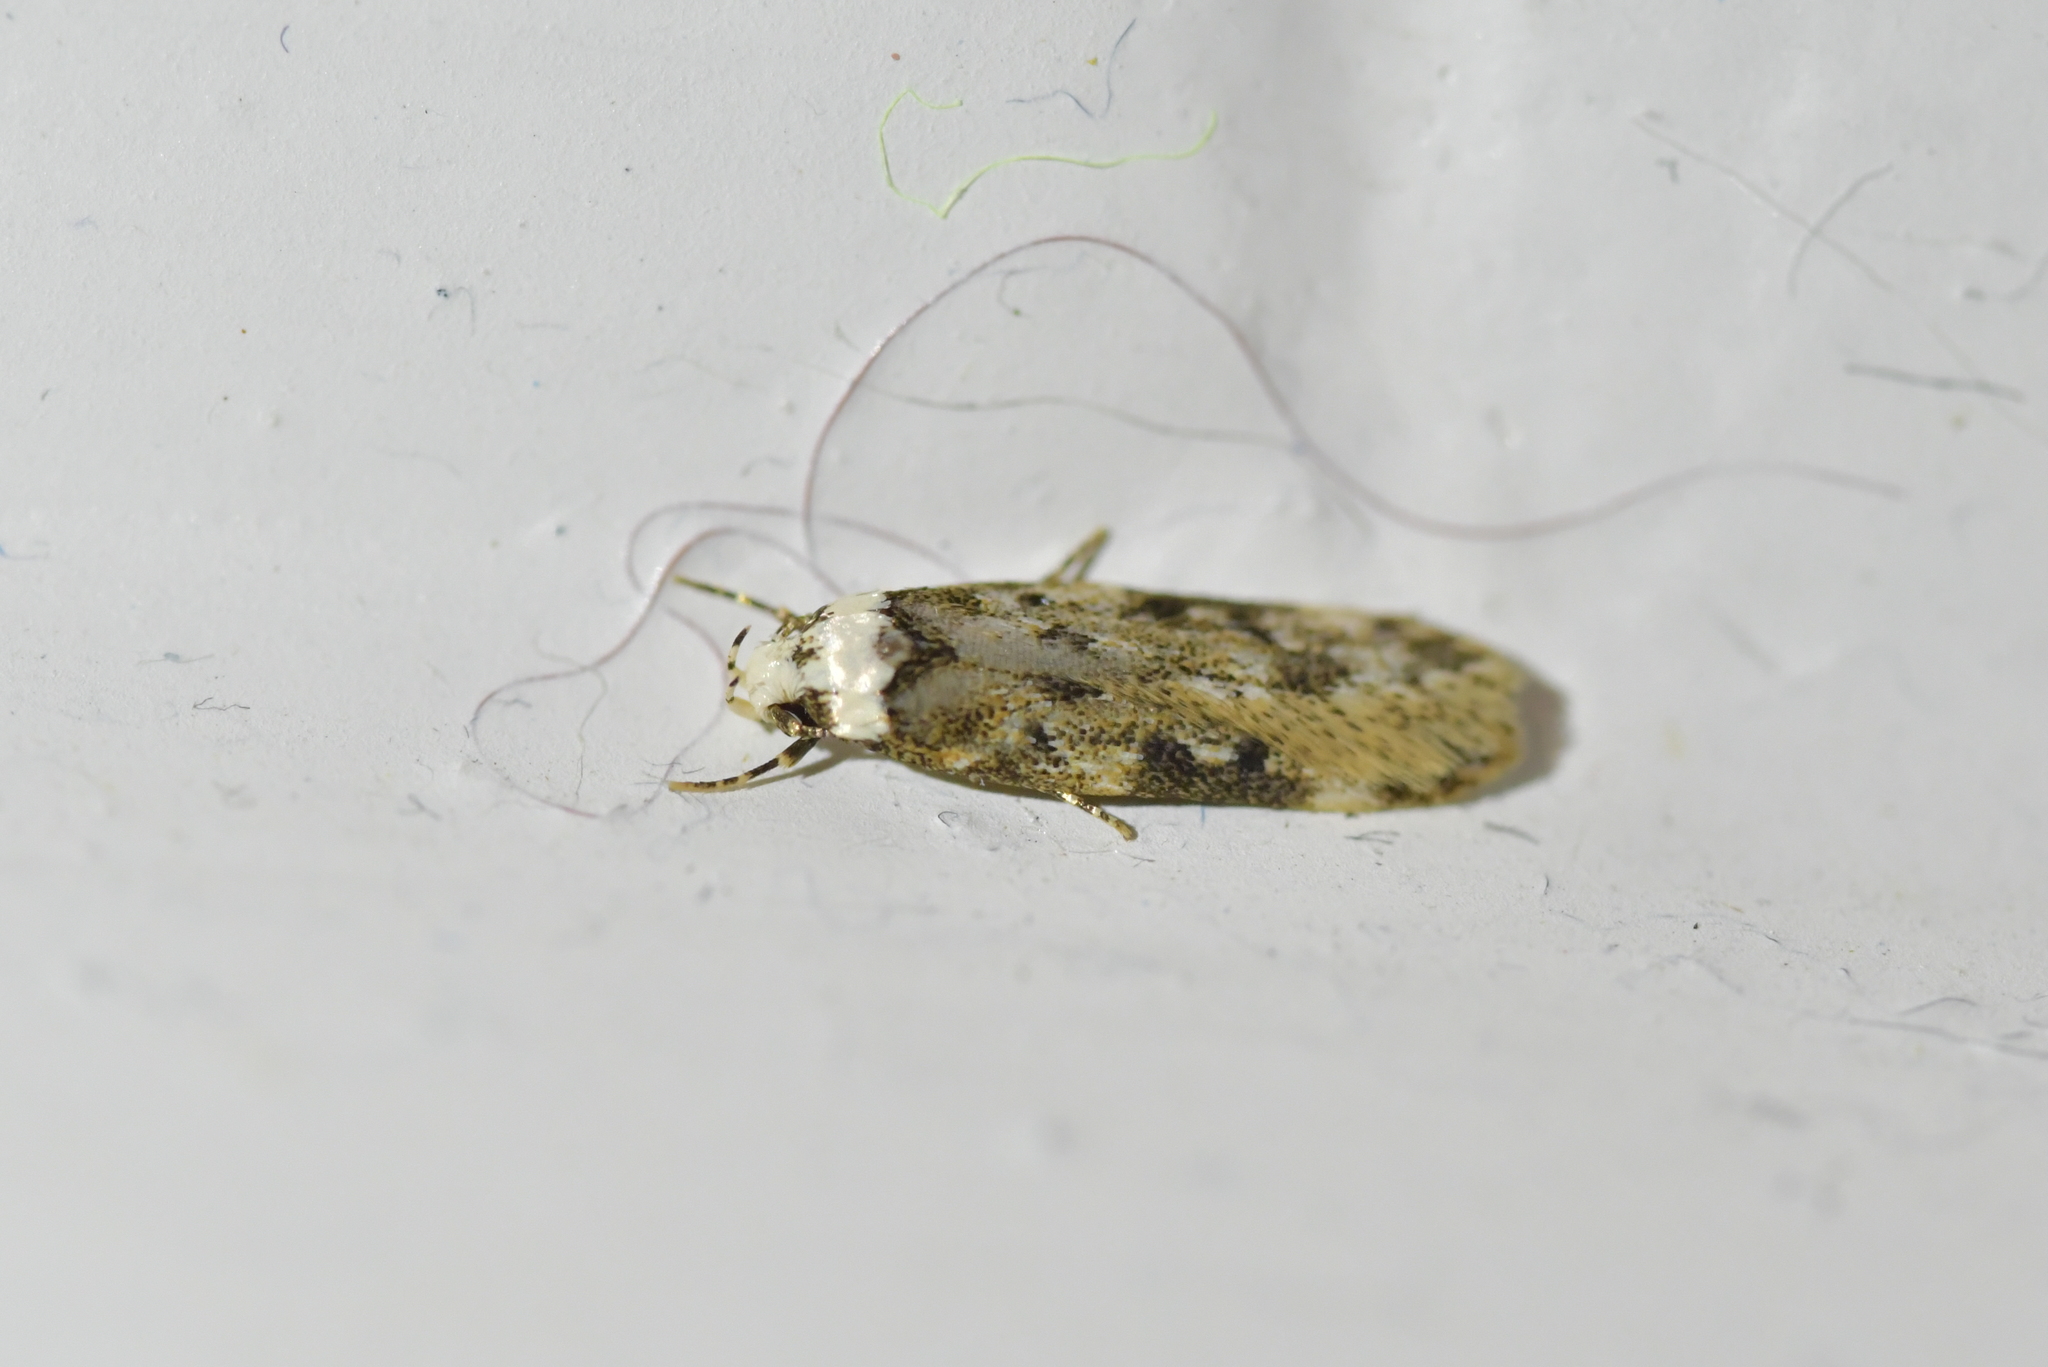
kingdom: Animalia
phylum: Arthropoda
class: Insecta
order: Lepidoptera
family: Oecophoridae
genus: Endrosis
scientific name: Endrosis sarcitrella
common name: White-shouldered house moth
